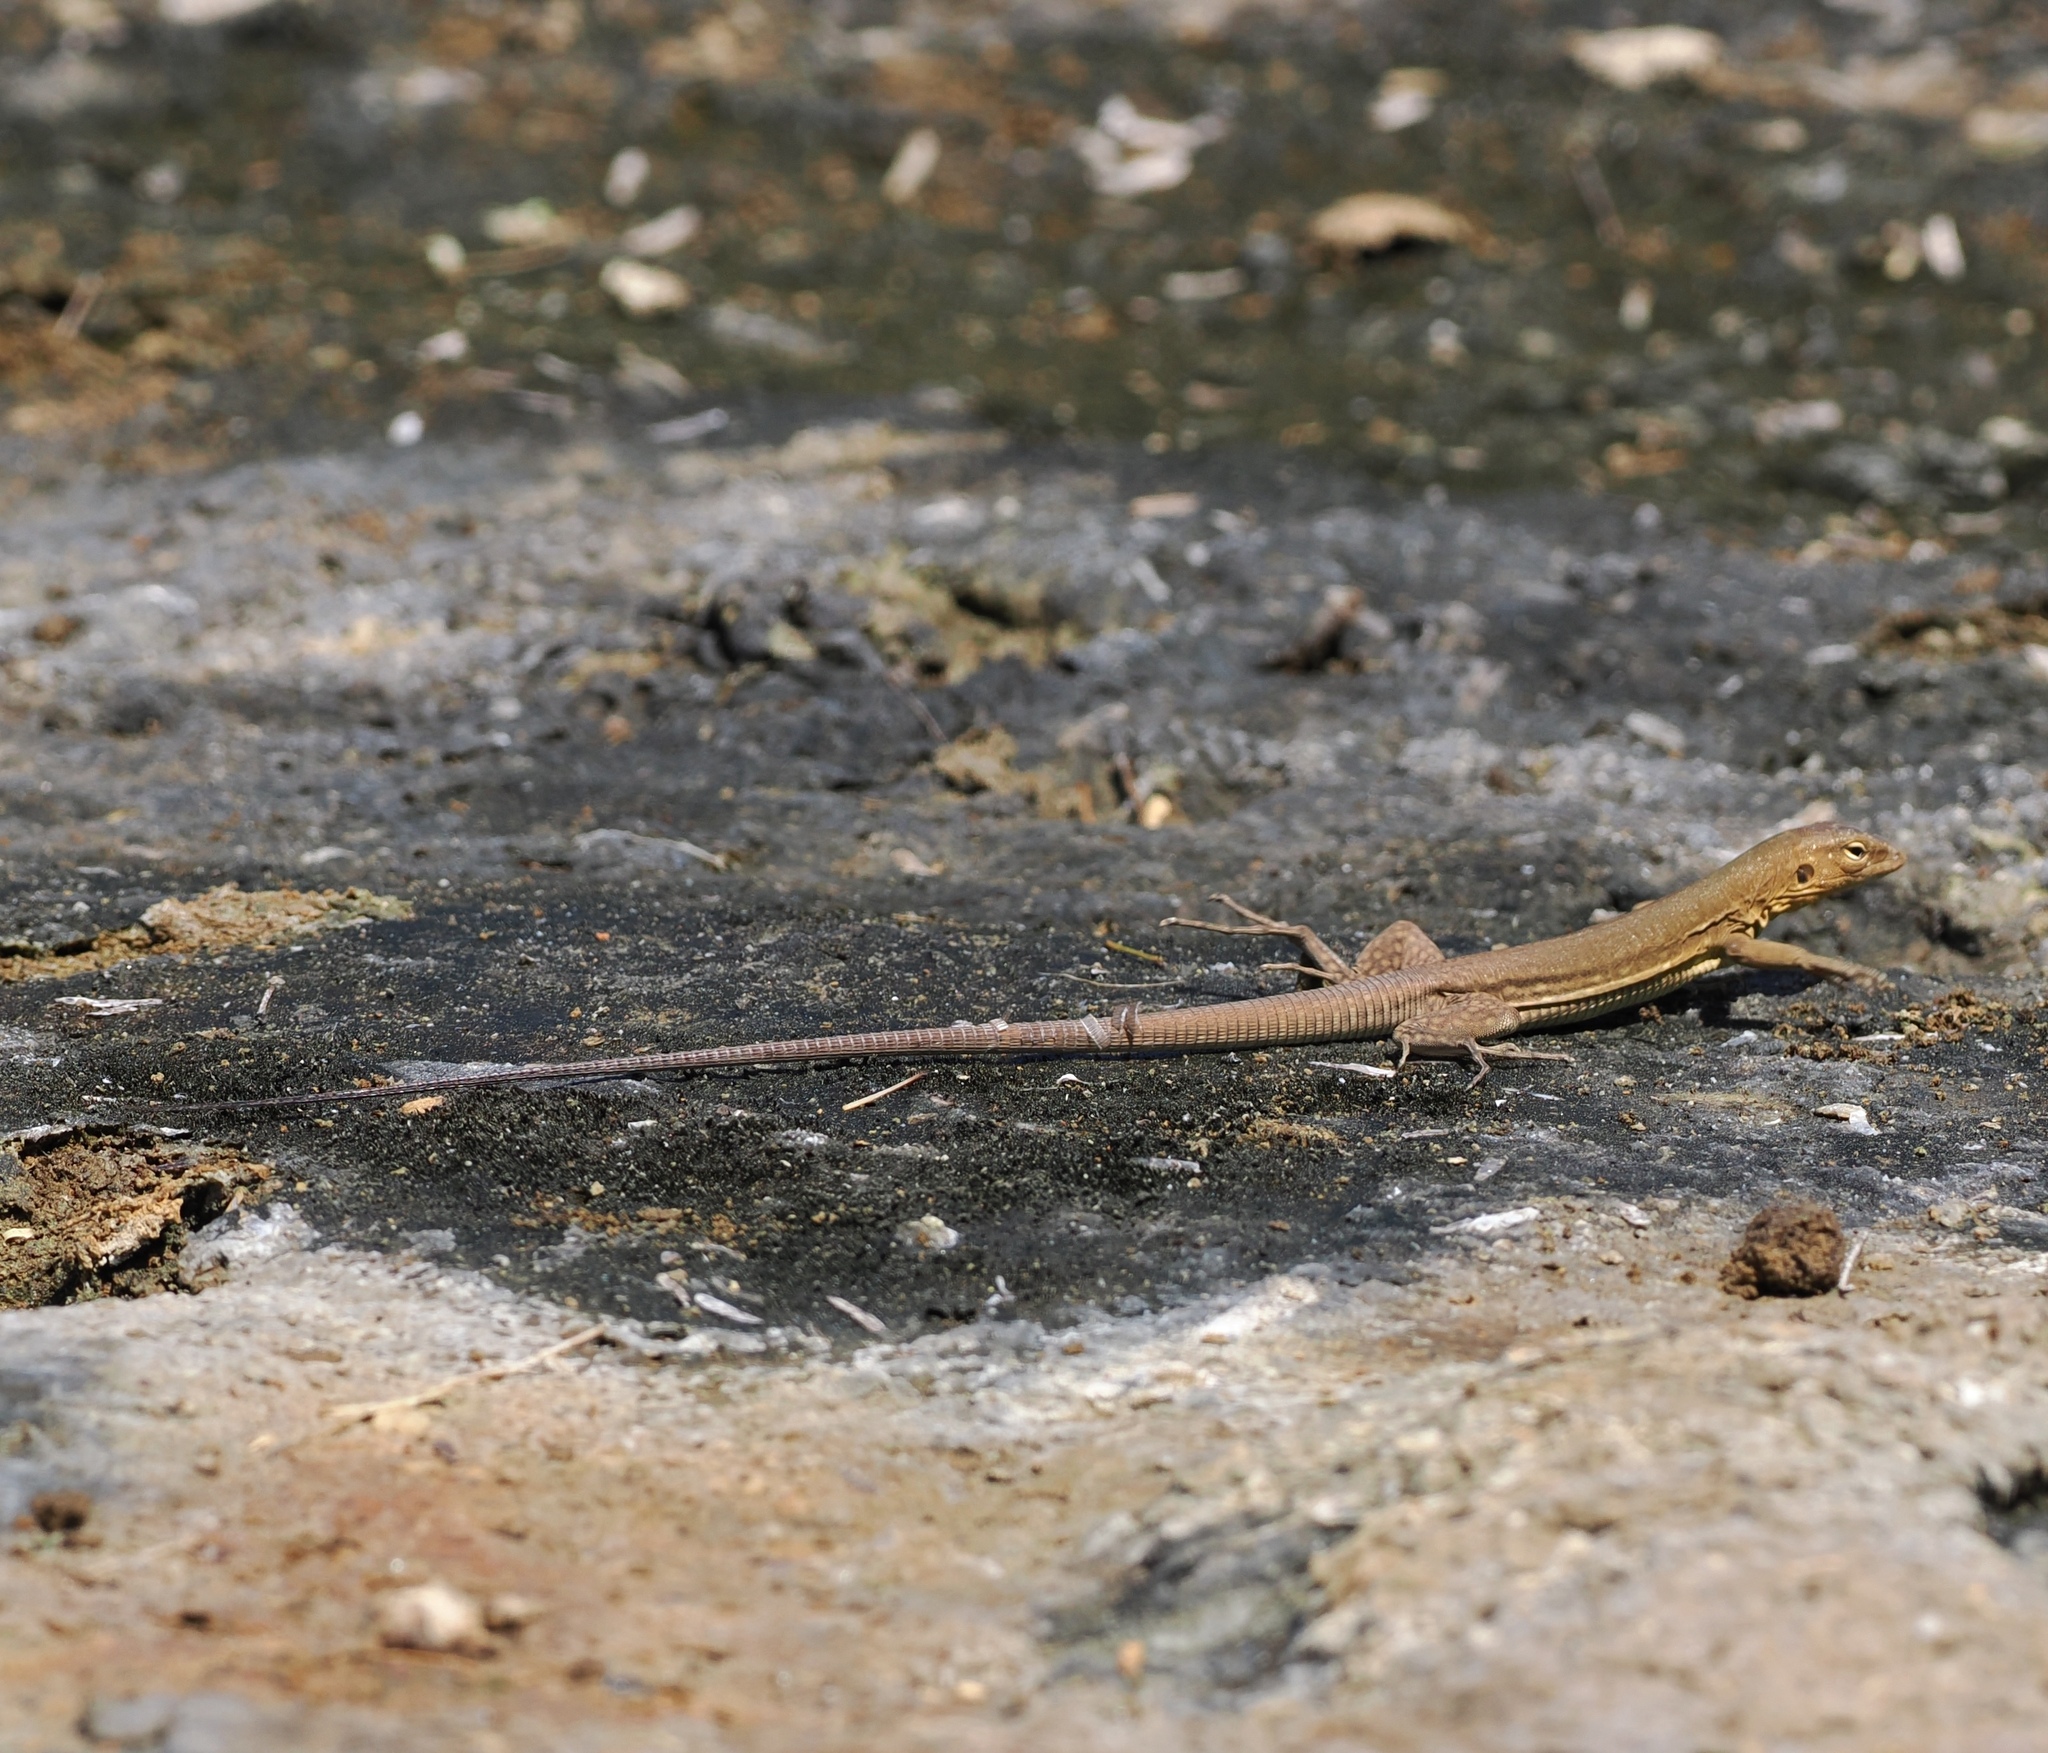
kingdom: Animalia
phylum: Chordata
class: Squamata
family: Teiidae
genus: Cnemidophorus
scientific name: Cnemidophorus ruthveni
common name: Bonaire whiptail
